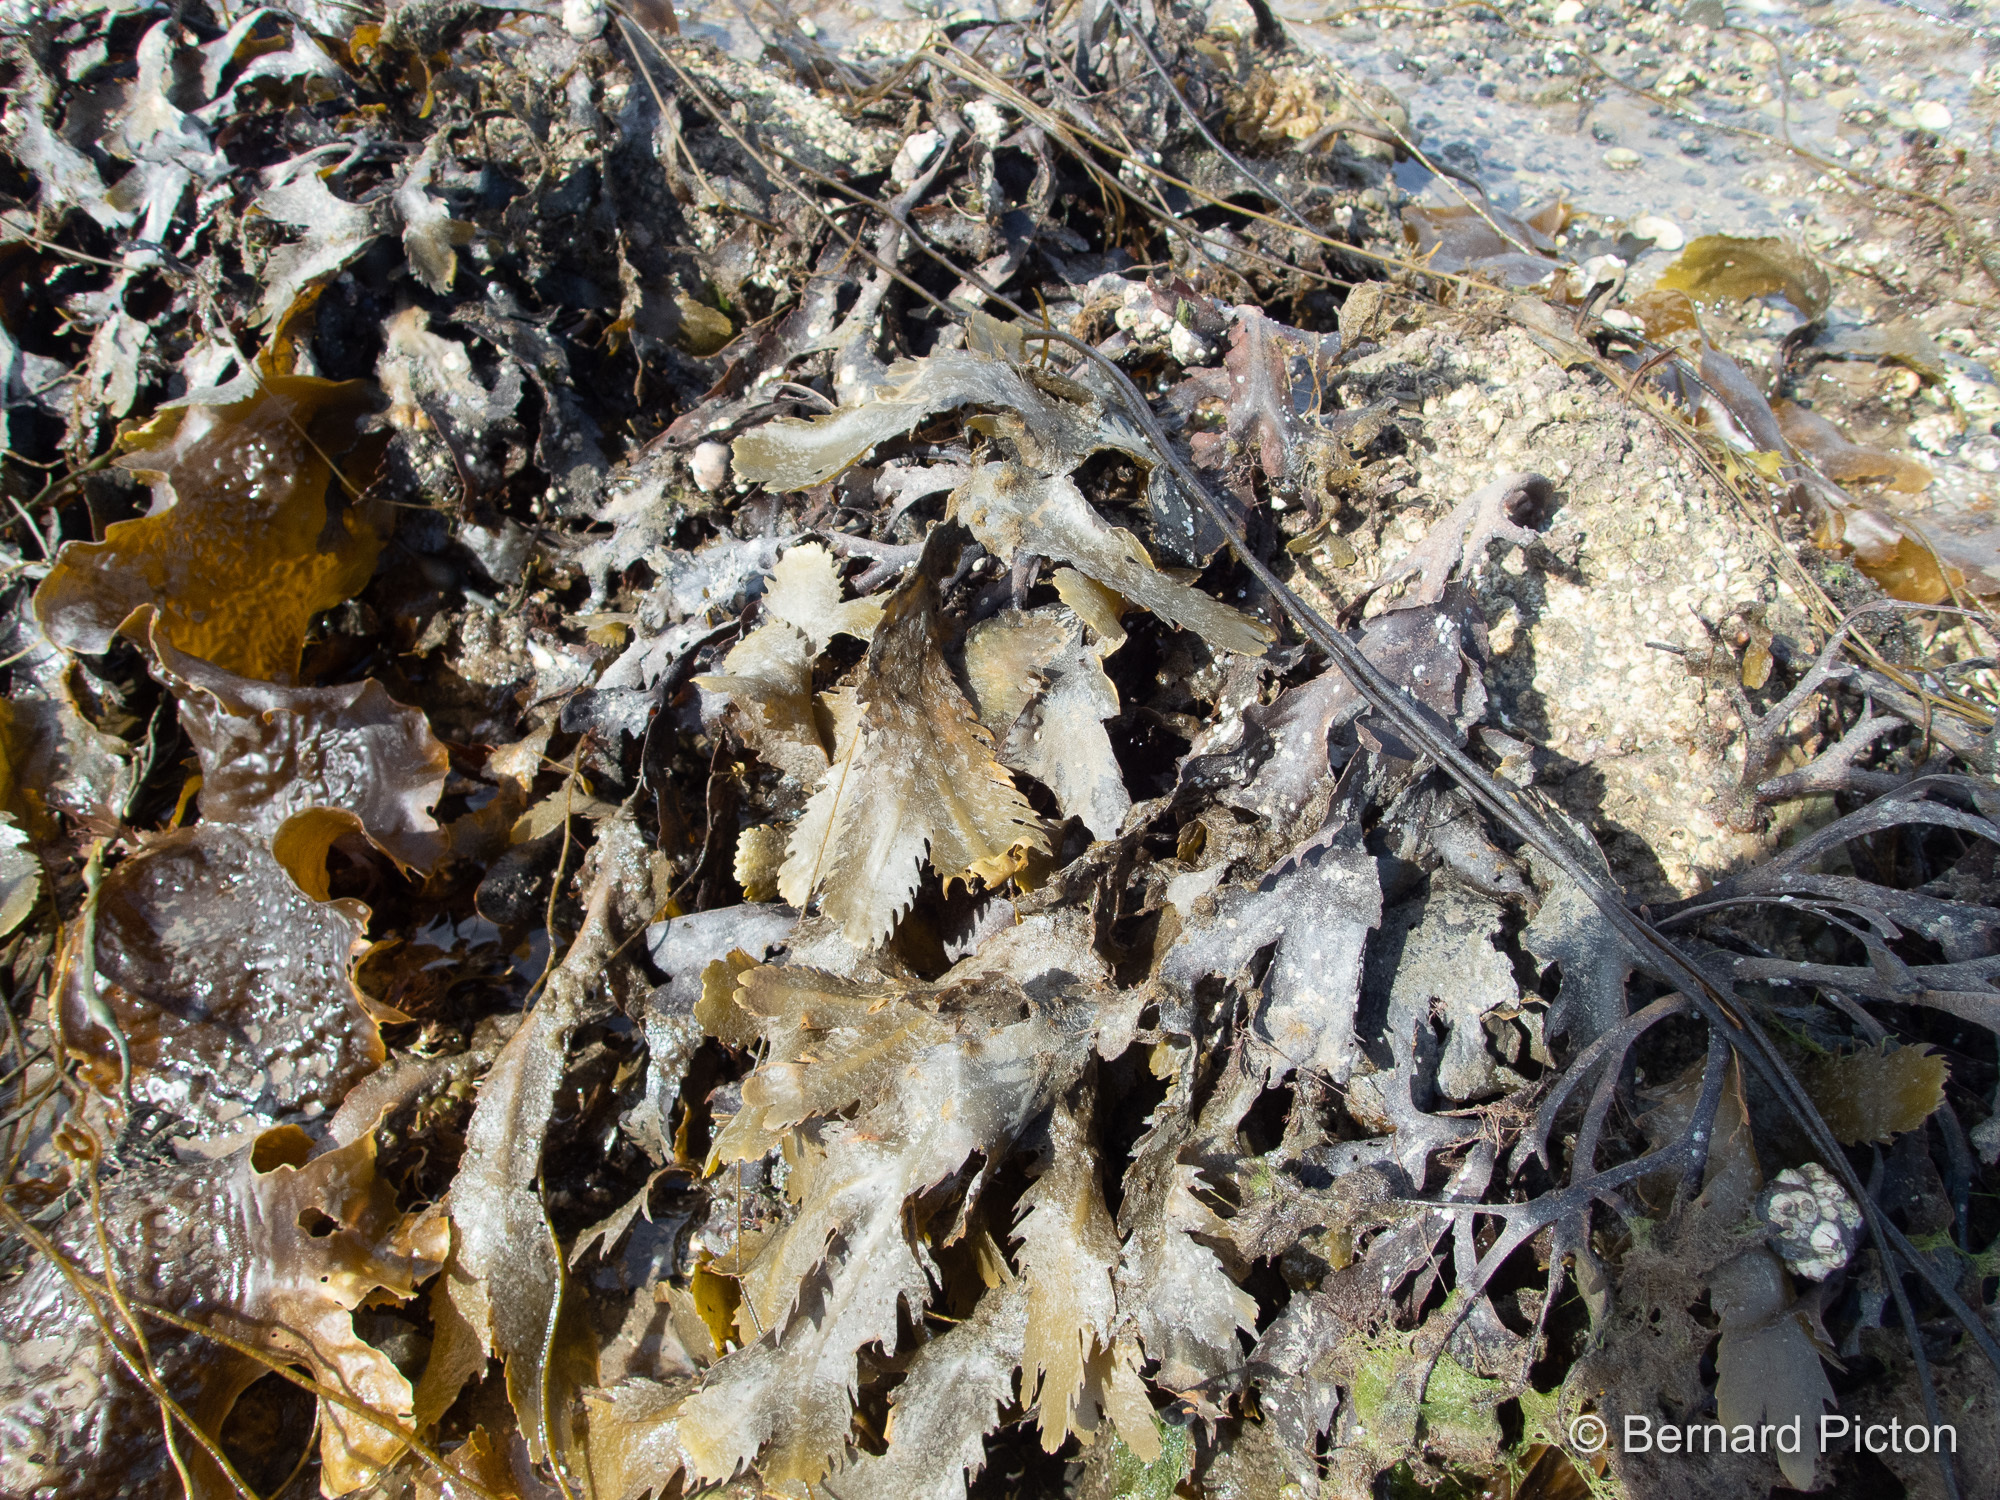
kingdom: Chromista
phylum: Ochrophyta
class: Phaeophyceae
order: Fucales
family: Fucaceae
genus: Fucus
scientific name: Fucus serratus
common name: Toothed wrack
